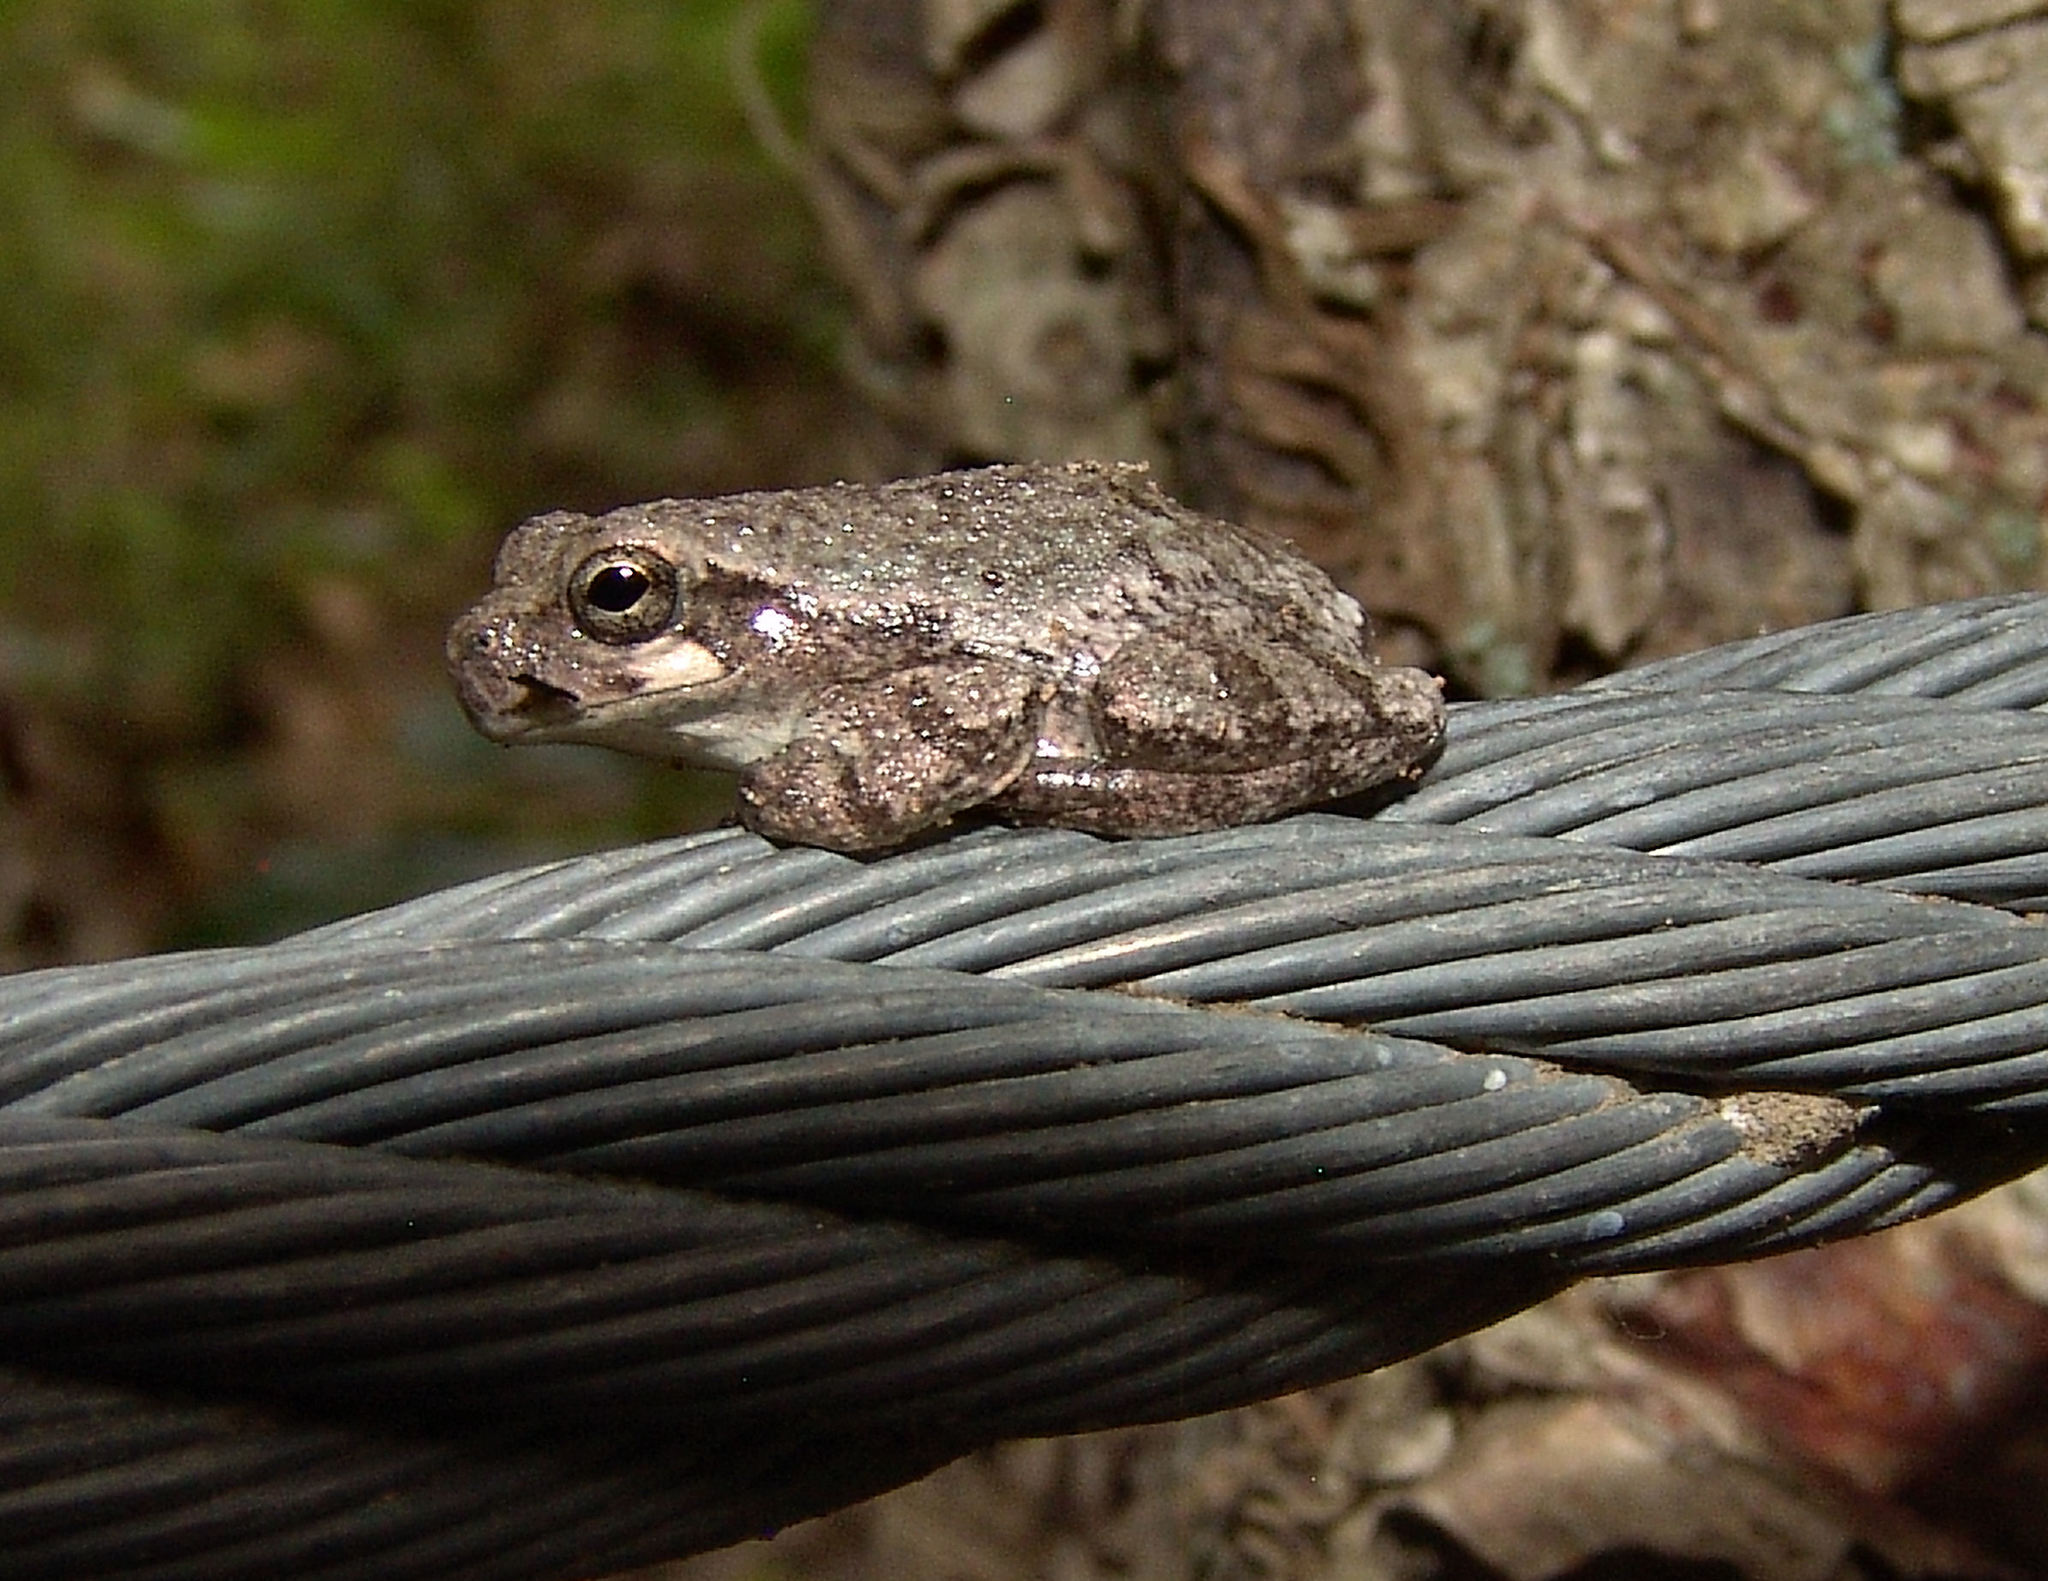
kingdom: Animalia
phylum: Chordata
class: Amphibia
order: Anura
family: Hylidae
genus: Dryophytes
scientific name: Dryophytes chrysoscelis
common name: Cope's gray treefrog
